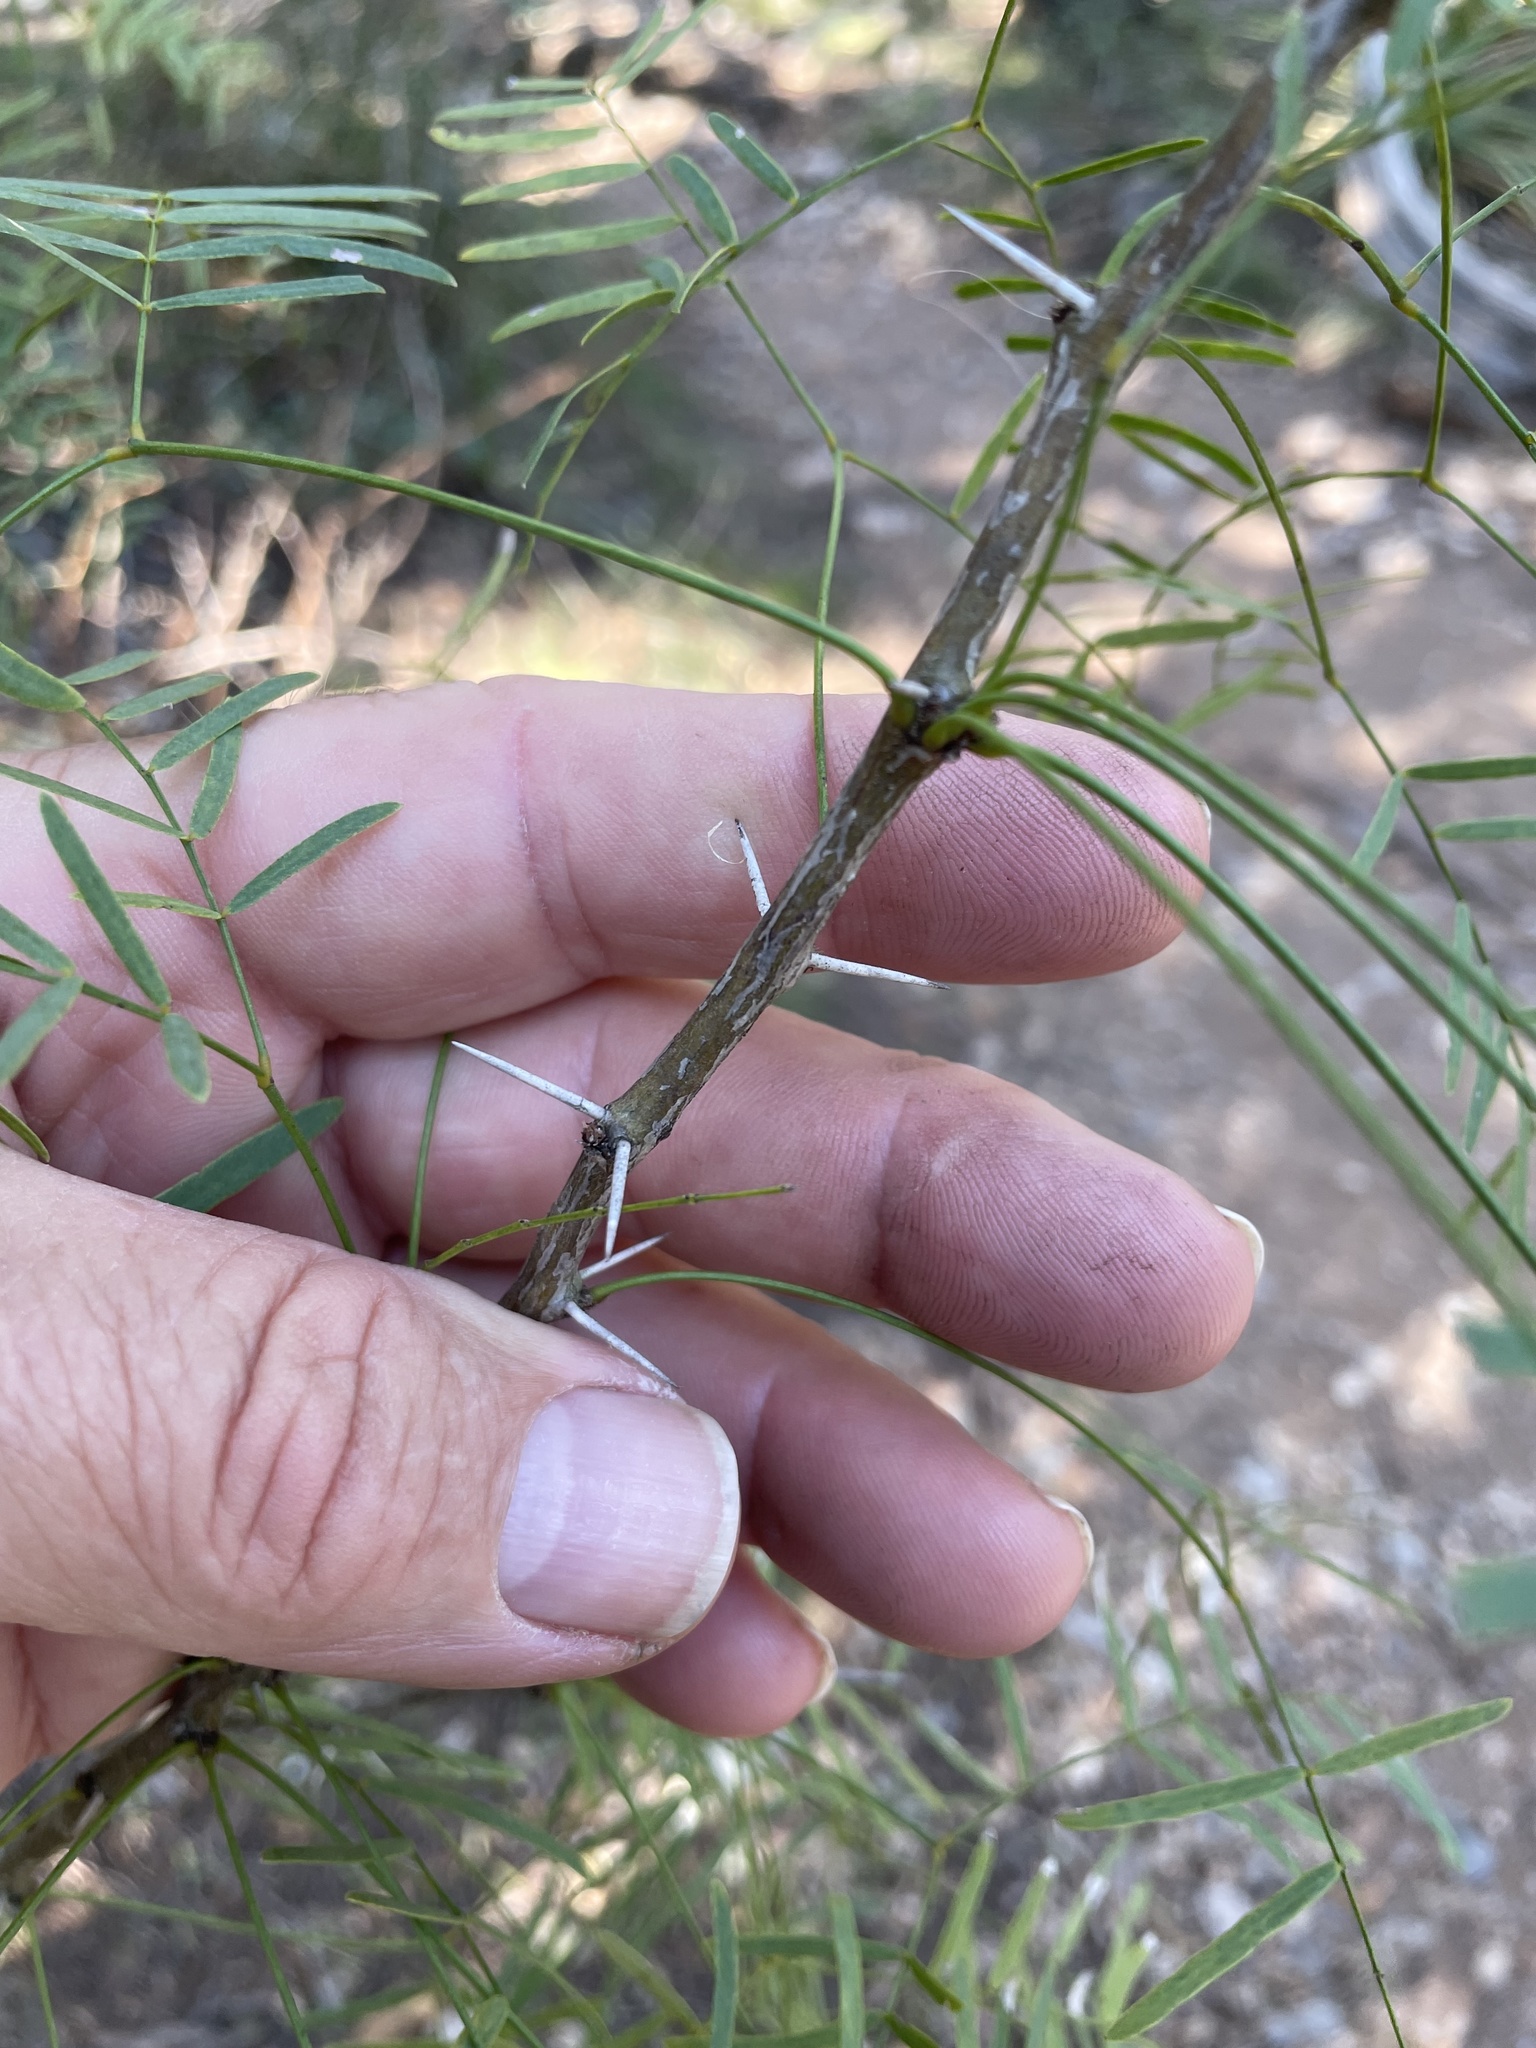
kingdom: Plantae
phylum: Tracheophyta
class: Magnoliopsida
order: Fabales
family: Fabaceae
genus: Prosopis
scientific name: Prosopis glandulosa
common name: Honey mesquite
